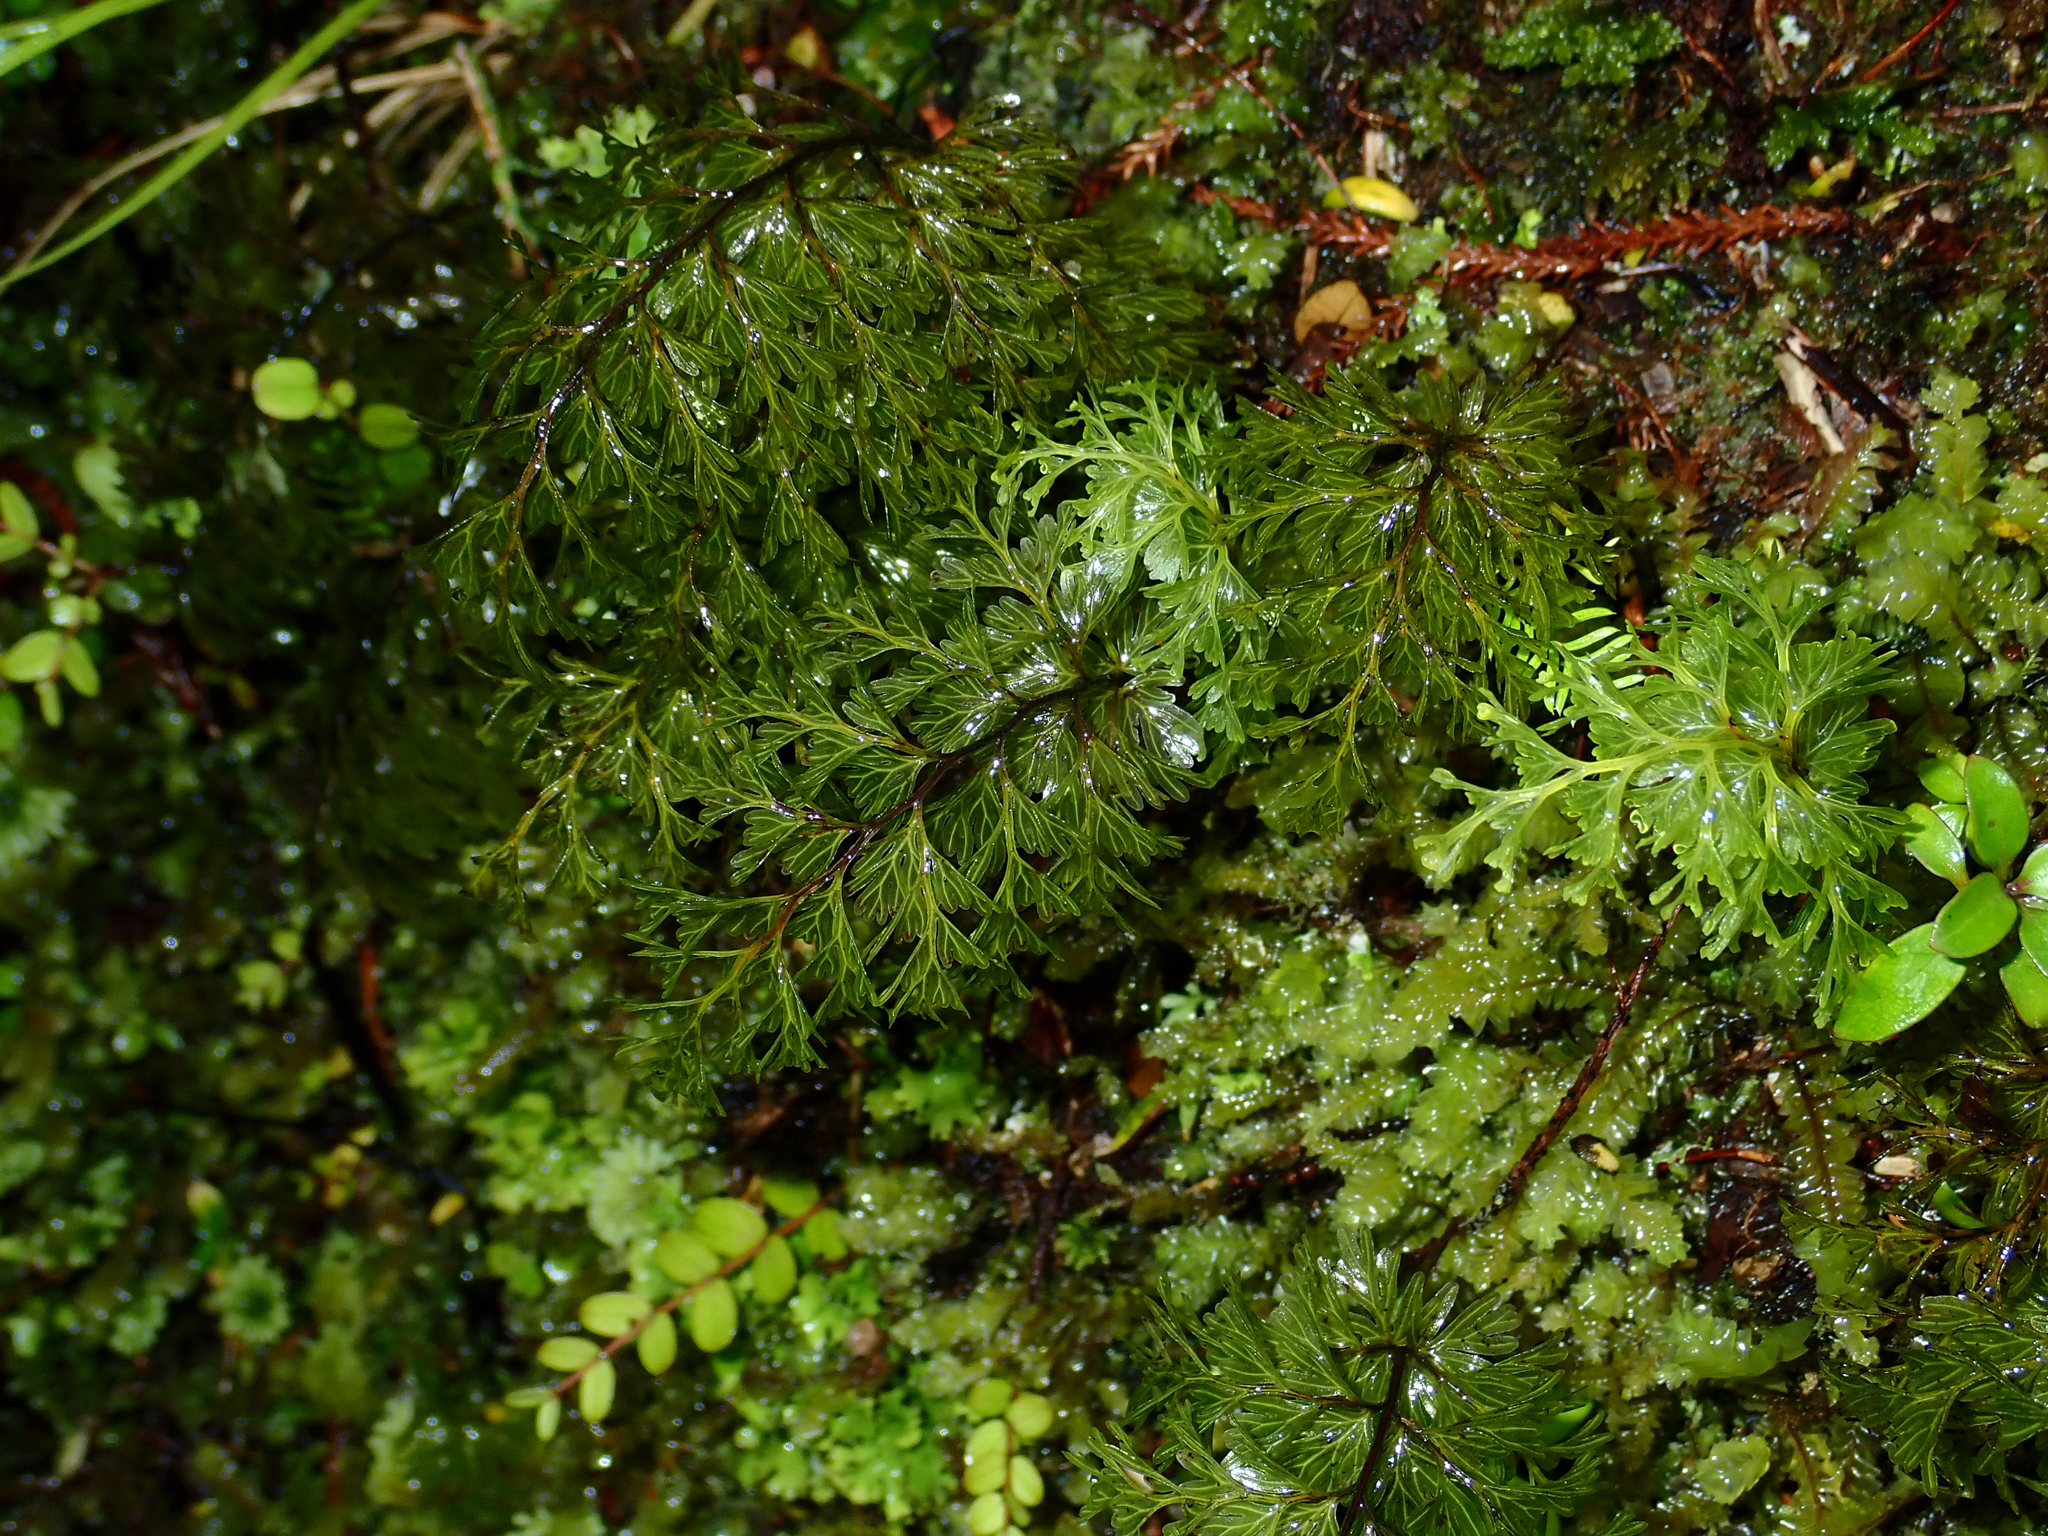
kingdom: Plantae
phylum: Tracheophyta
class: Polypodiopsida
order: Hymenophyllales
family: Hymenophyllaceae
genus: Hymenophyllum
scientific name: Hymenophyllum demissum
